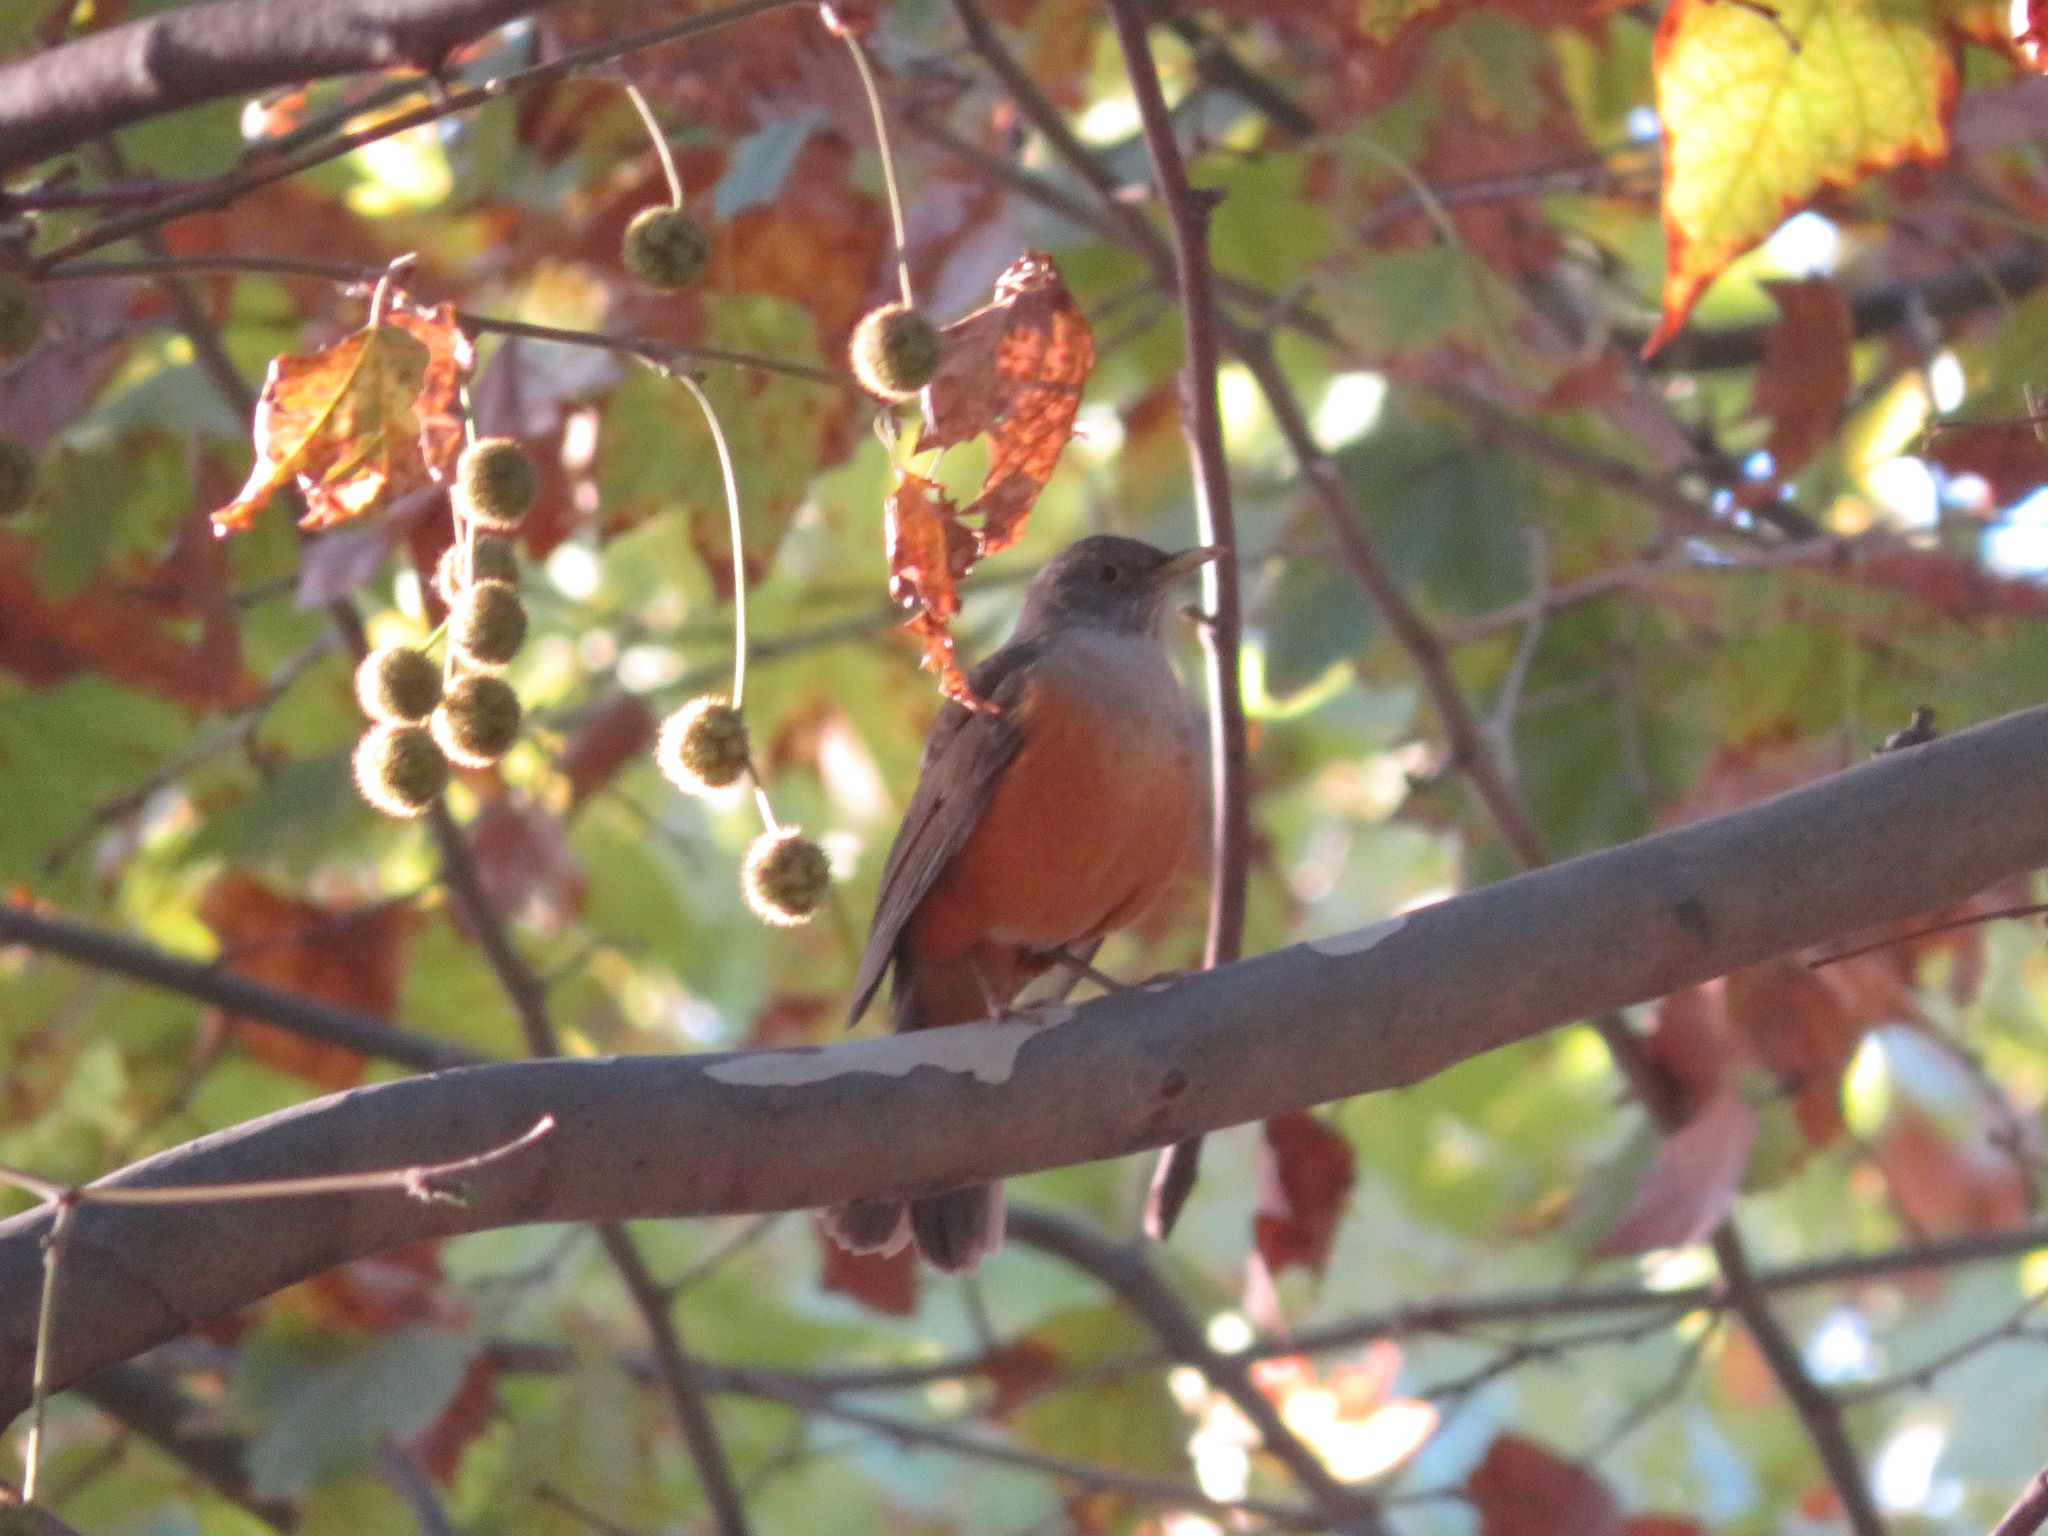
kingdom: Animalia
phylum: Chordata
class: Aves
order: Passeriformes
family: Turdidae
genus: Turdus
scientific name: Turdus rufiventris
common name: Rufous-bellied thrush
